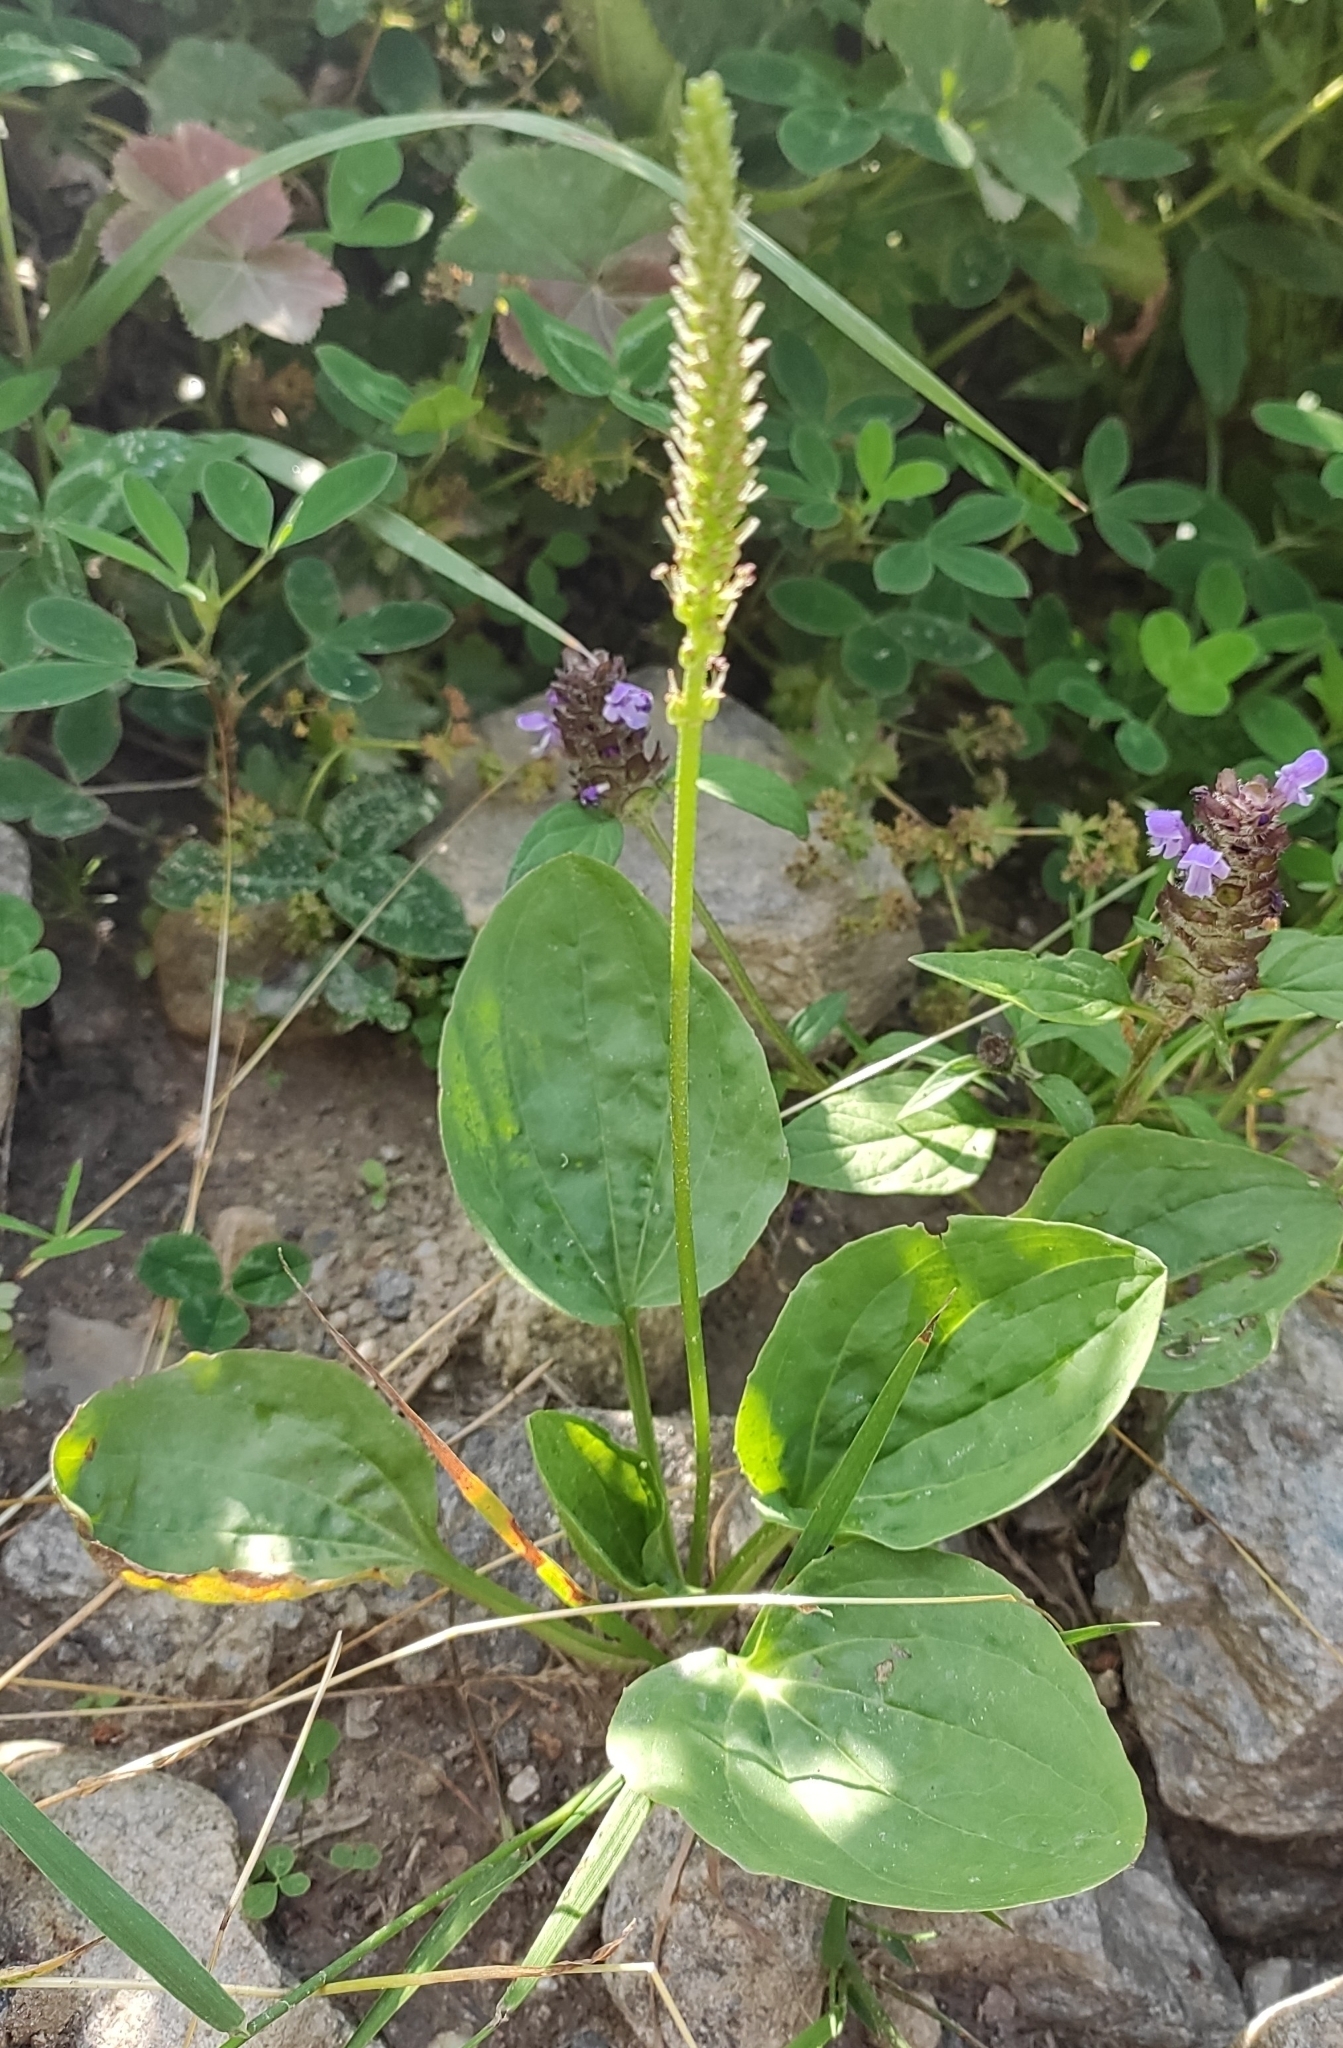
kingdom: Plantae
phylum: Tracheophyta
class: Magnoliopsida
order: Lamiales
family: Plantaginaceae
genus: Plantago
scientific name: Plantago major
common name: Common plantain
